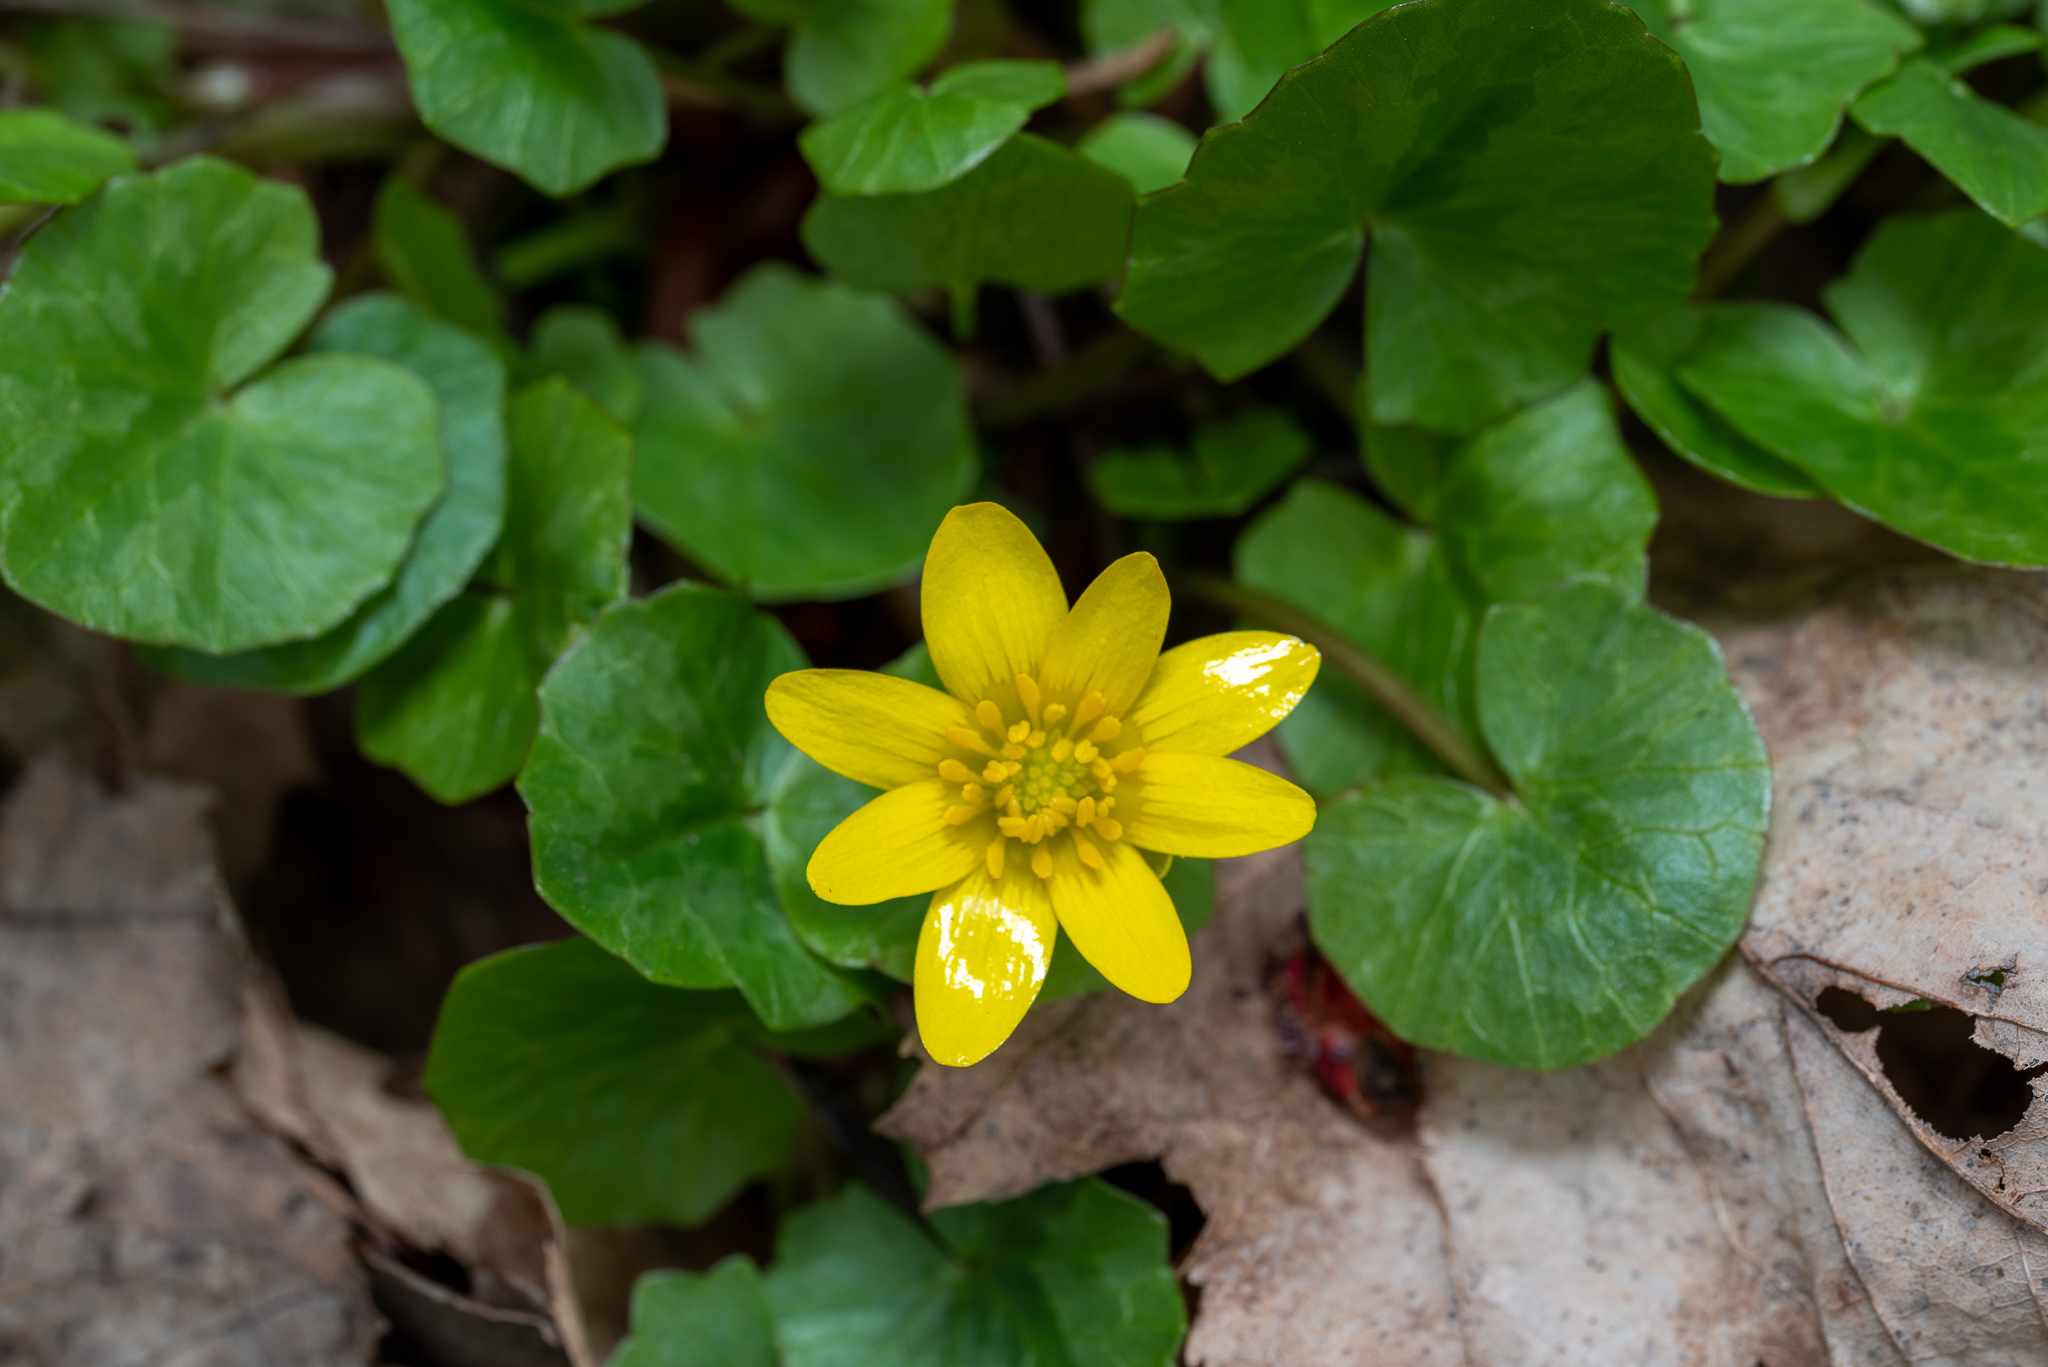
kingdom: Plantae
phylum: Tracheophyta
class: Magnoliopsida
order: Ranunculales
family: Ranunculaceae
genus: Ficaria
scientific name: Ficaria verna
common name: Lesser celandine
